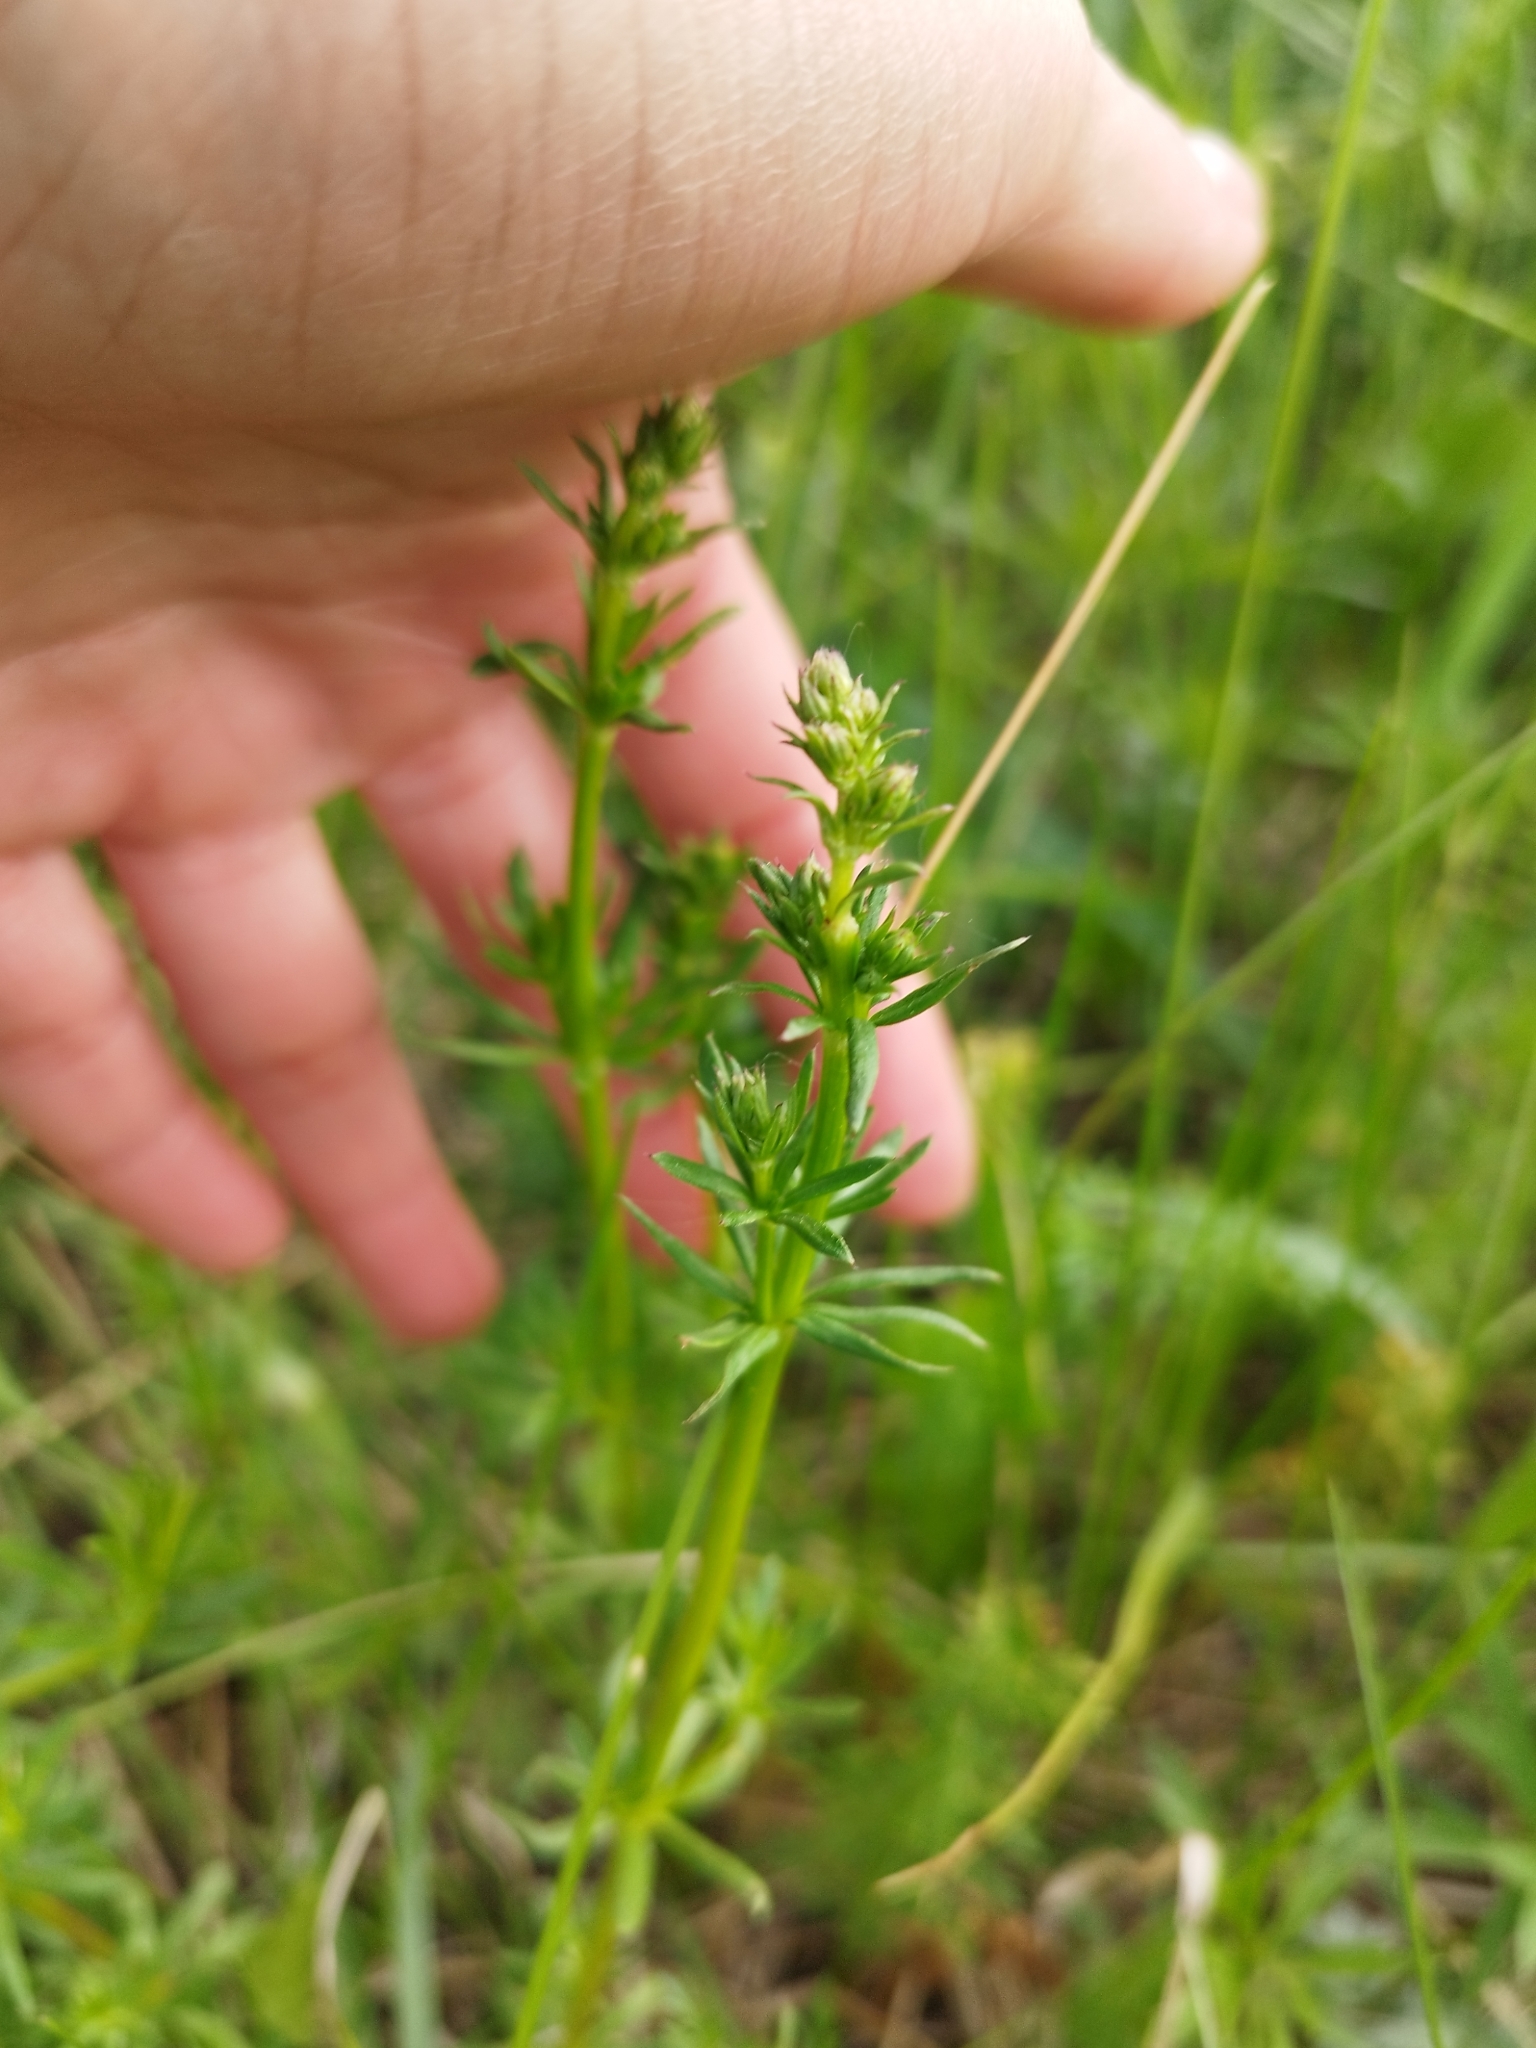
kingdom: Plantae
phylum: Tracheophyta
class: Magnoliopsida
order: Gentianales
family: Rubiaceae
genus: Galium
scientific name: Galium mollugo
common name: Hedge bedstraw
